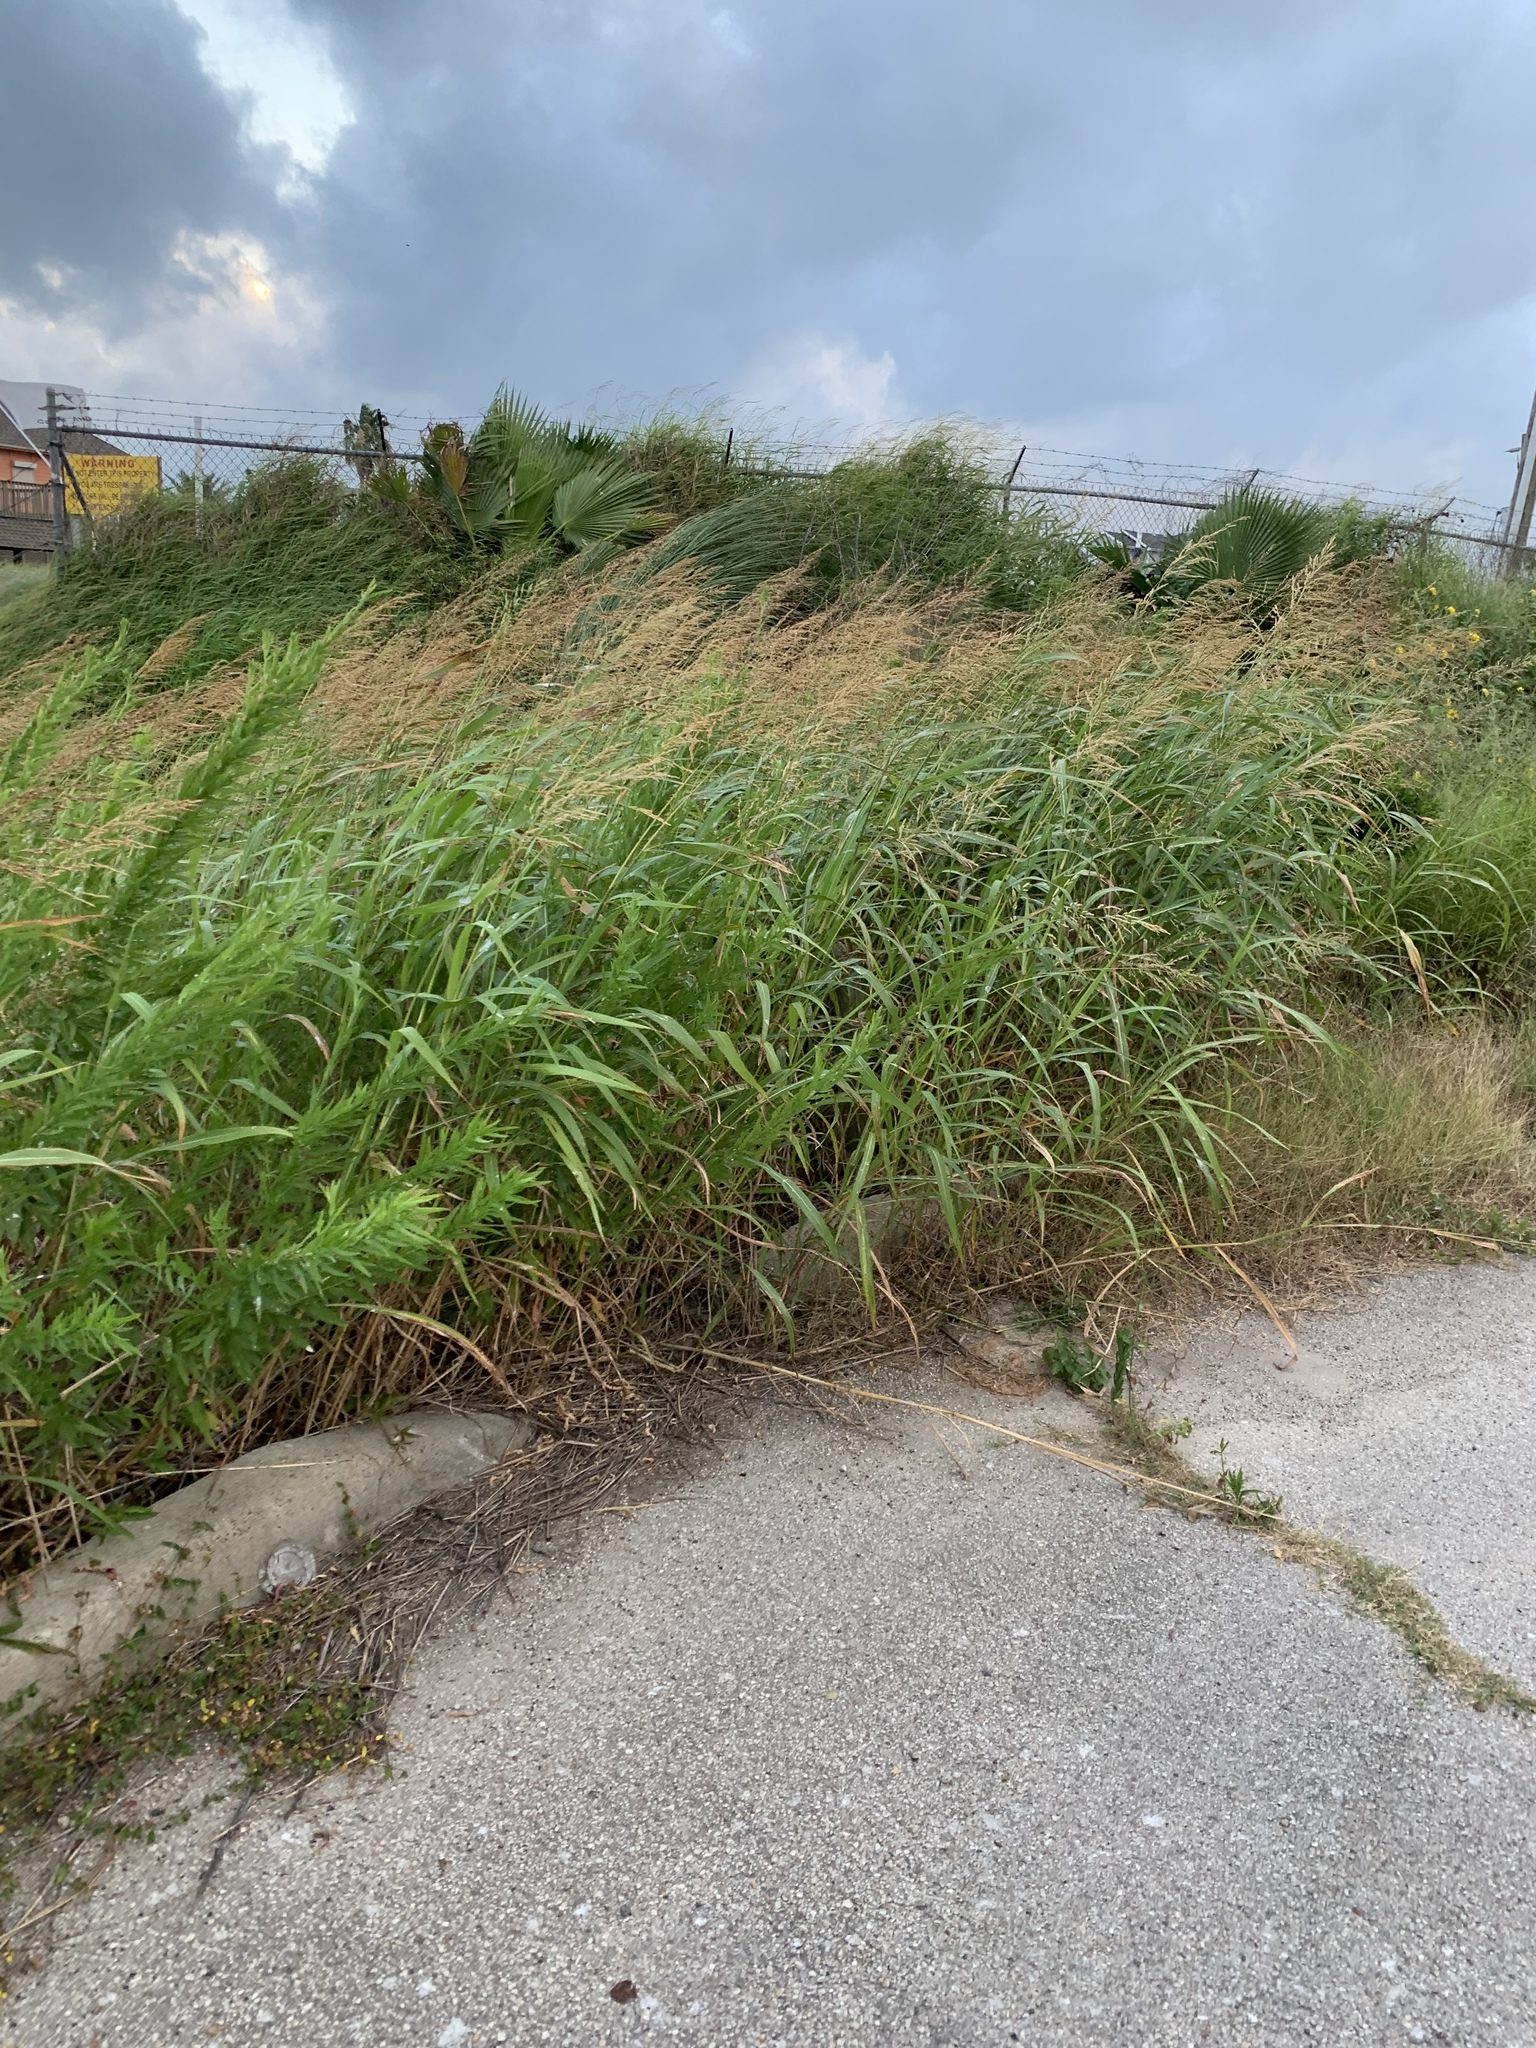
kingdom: Plantae
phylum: Tracheophyta
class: Liliopsida
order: Poales
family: Poaceae
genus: Sorghum
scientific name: Sorghum halepense
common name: Johnson-grass
